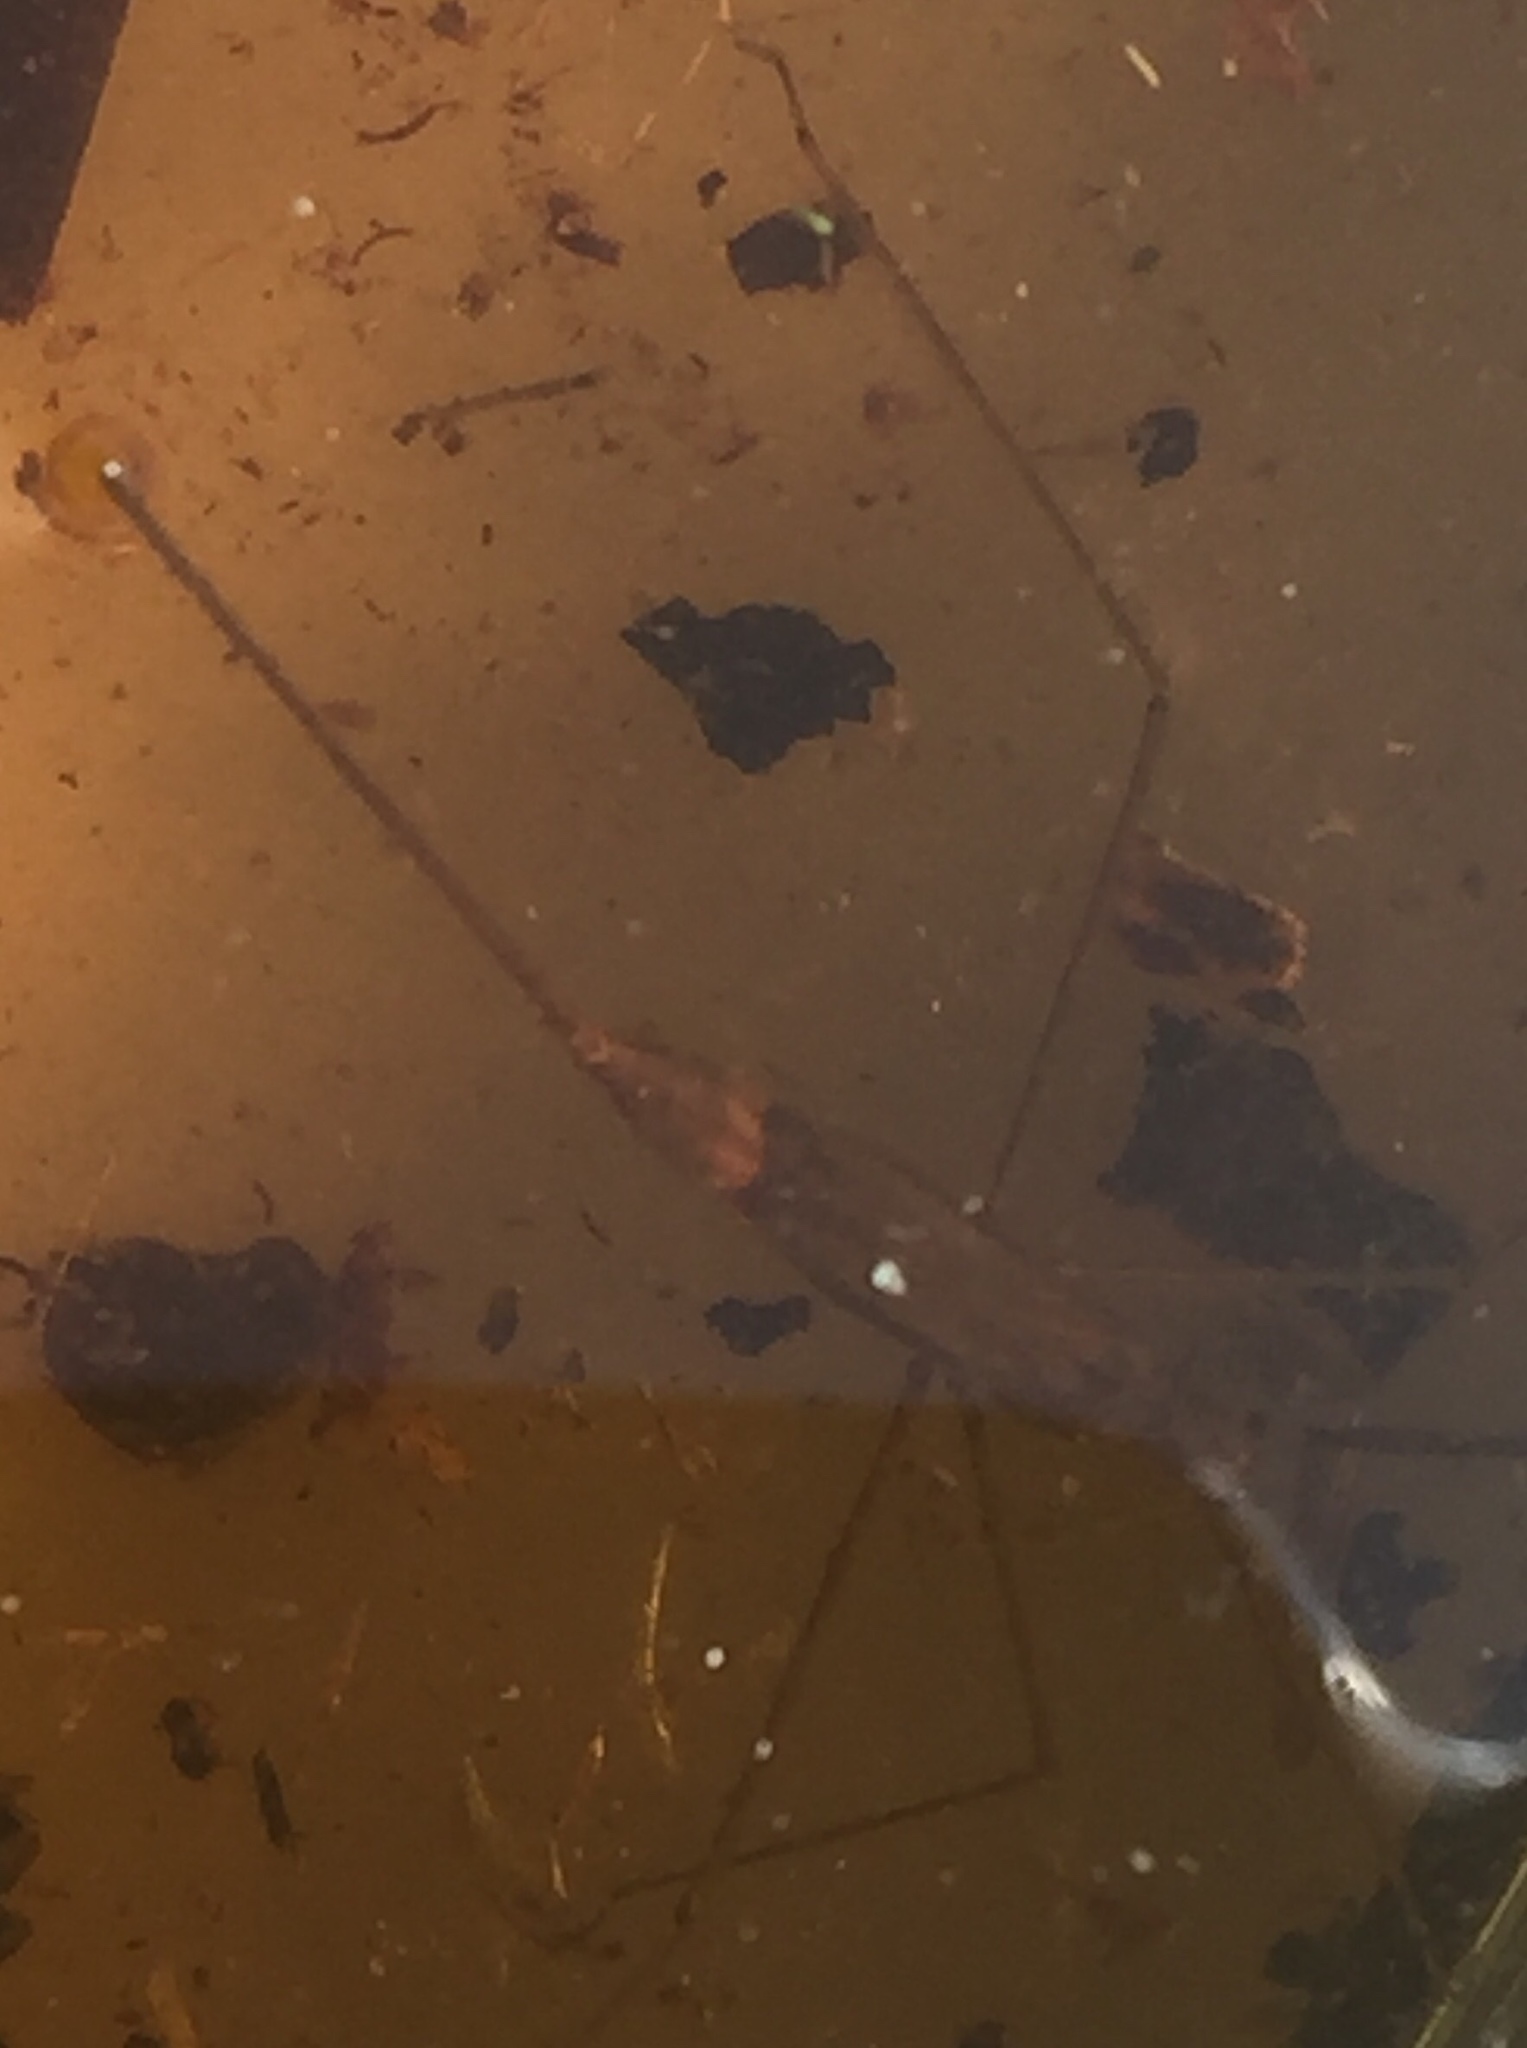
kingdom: Animalia
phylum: Arthropoda
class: Insecta
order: Hemiptera
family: Nepidae
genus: Ranatra
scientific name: Ranatra linearis
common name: Water stick insect
